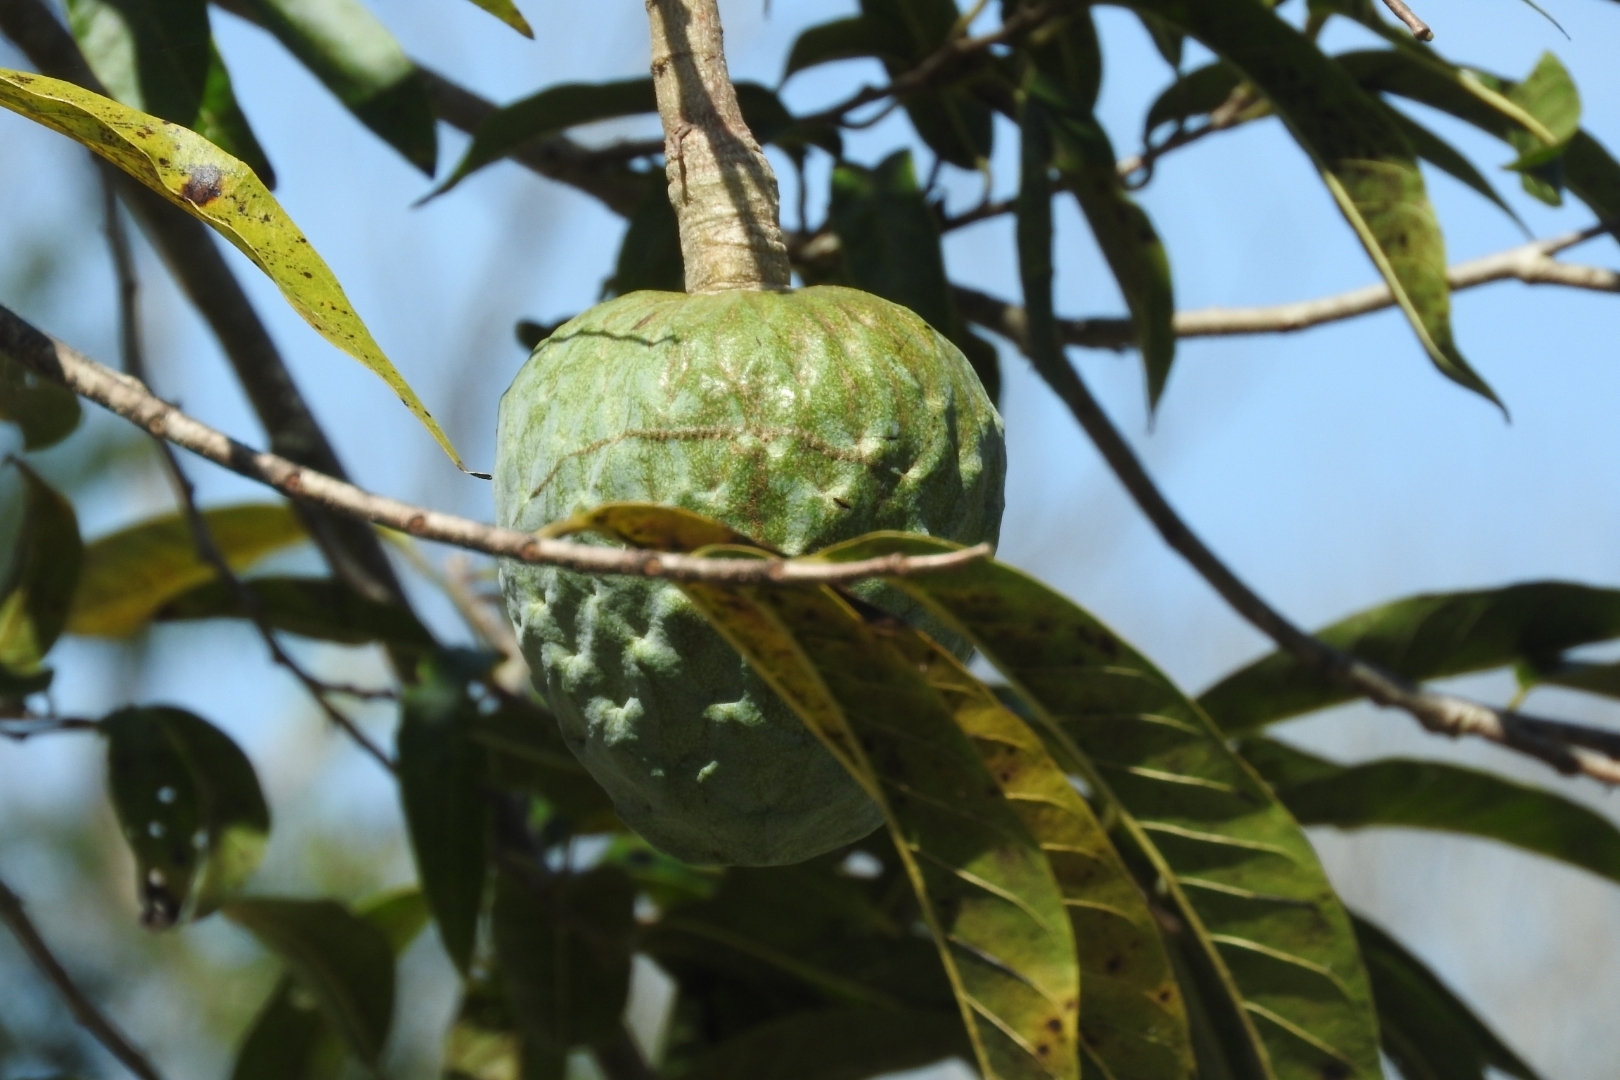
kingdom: Plantae
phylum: Tracheophyta
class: Magnoliopsida
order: Magnoliales
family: Annonaceae
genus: Annona
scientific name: Annona reticulata
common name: Custard apple
